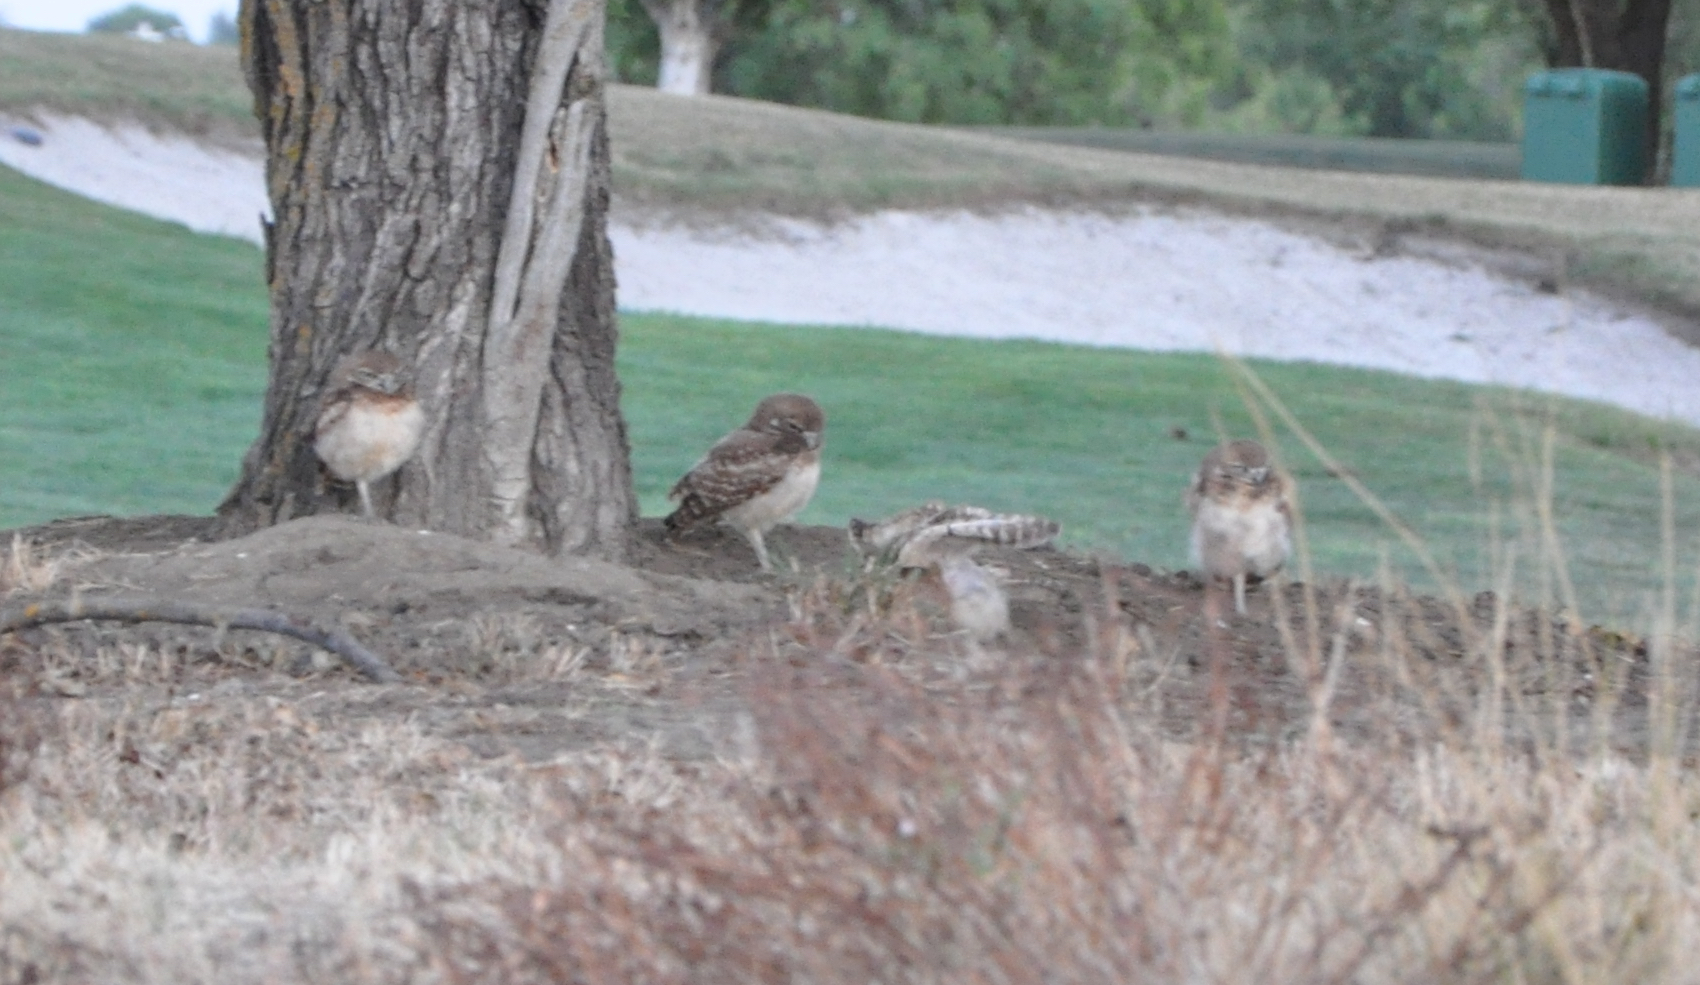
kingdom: Animalia
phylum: Chordata
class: Aves
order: Strigiformes
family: Strigidae
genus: Athene
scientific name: Athene cunicularia
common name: Burrowing owl
